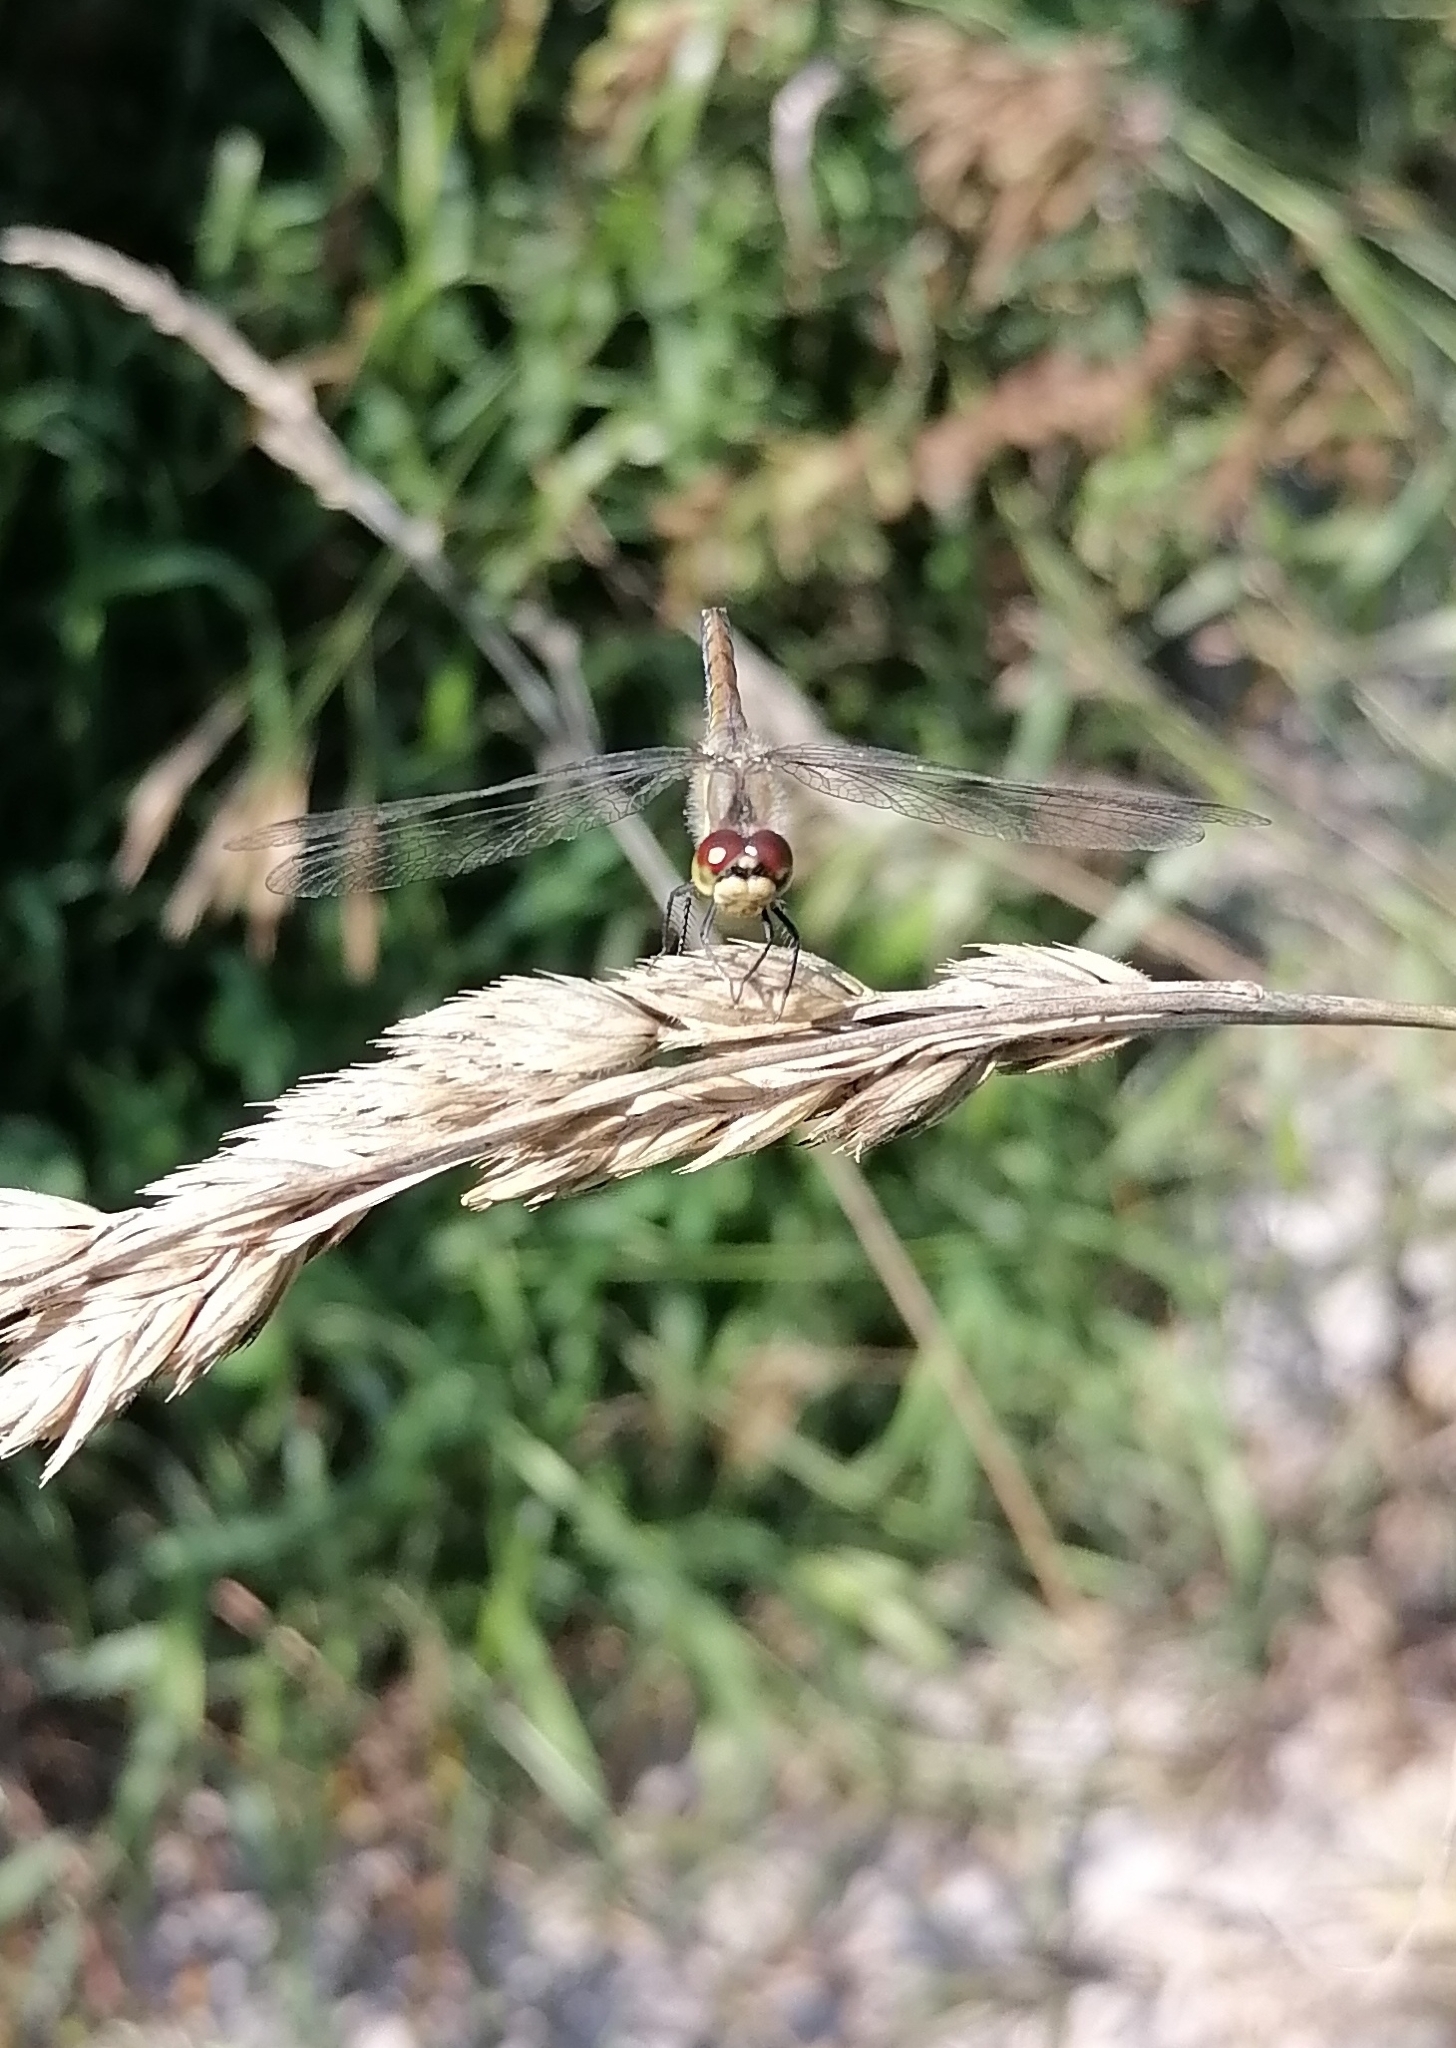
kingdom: Animalia
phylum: Arthropoda
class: Insecta
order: Odonata
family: Libellulidae
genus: Sympetrum
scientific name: Sympetrum danae
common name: Black darter
